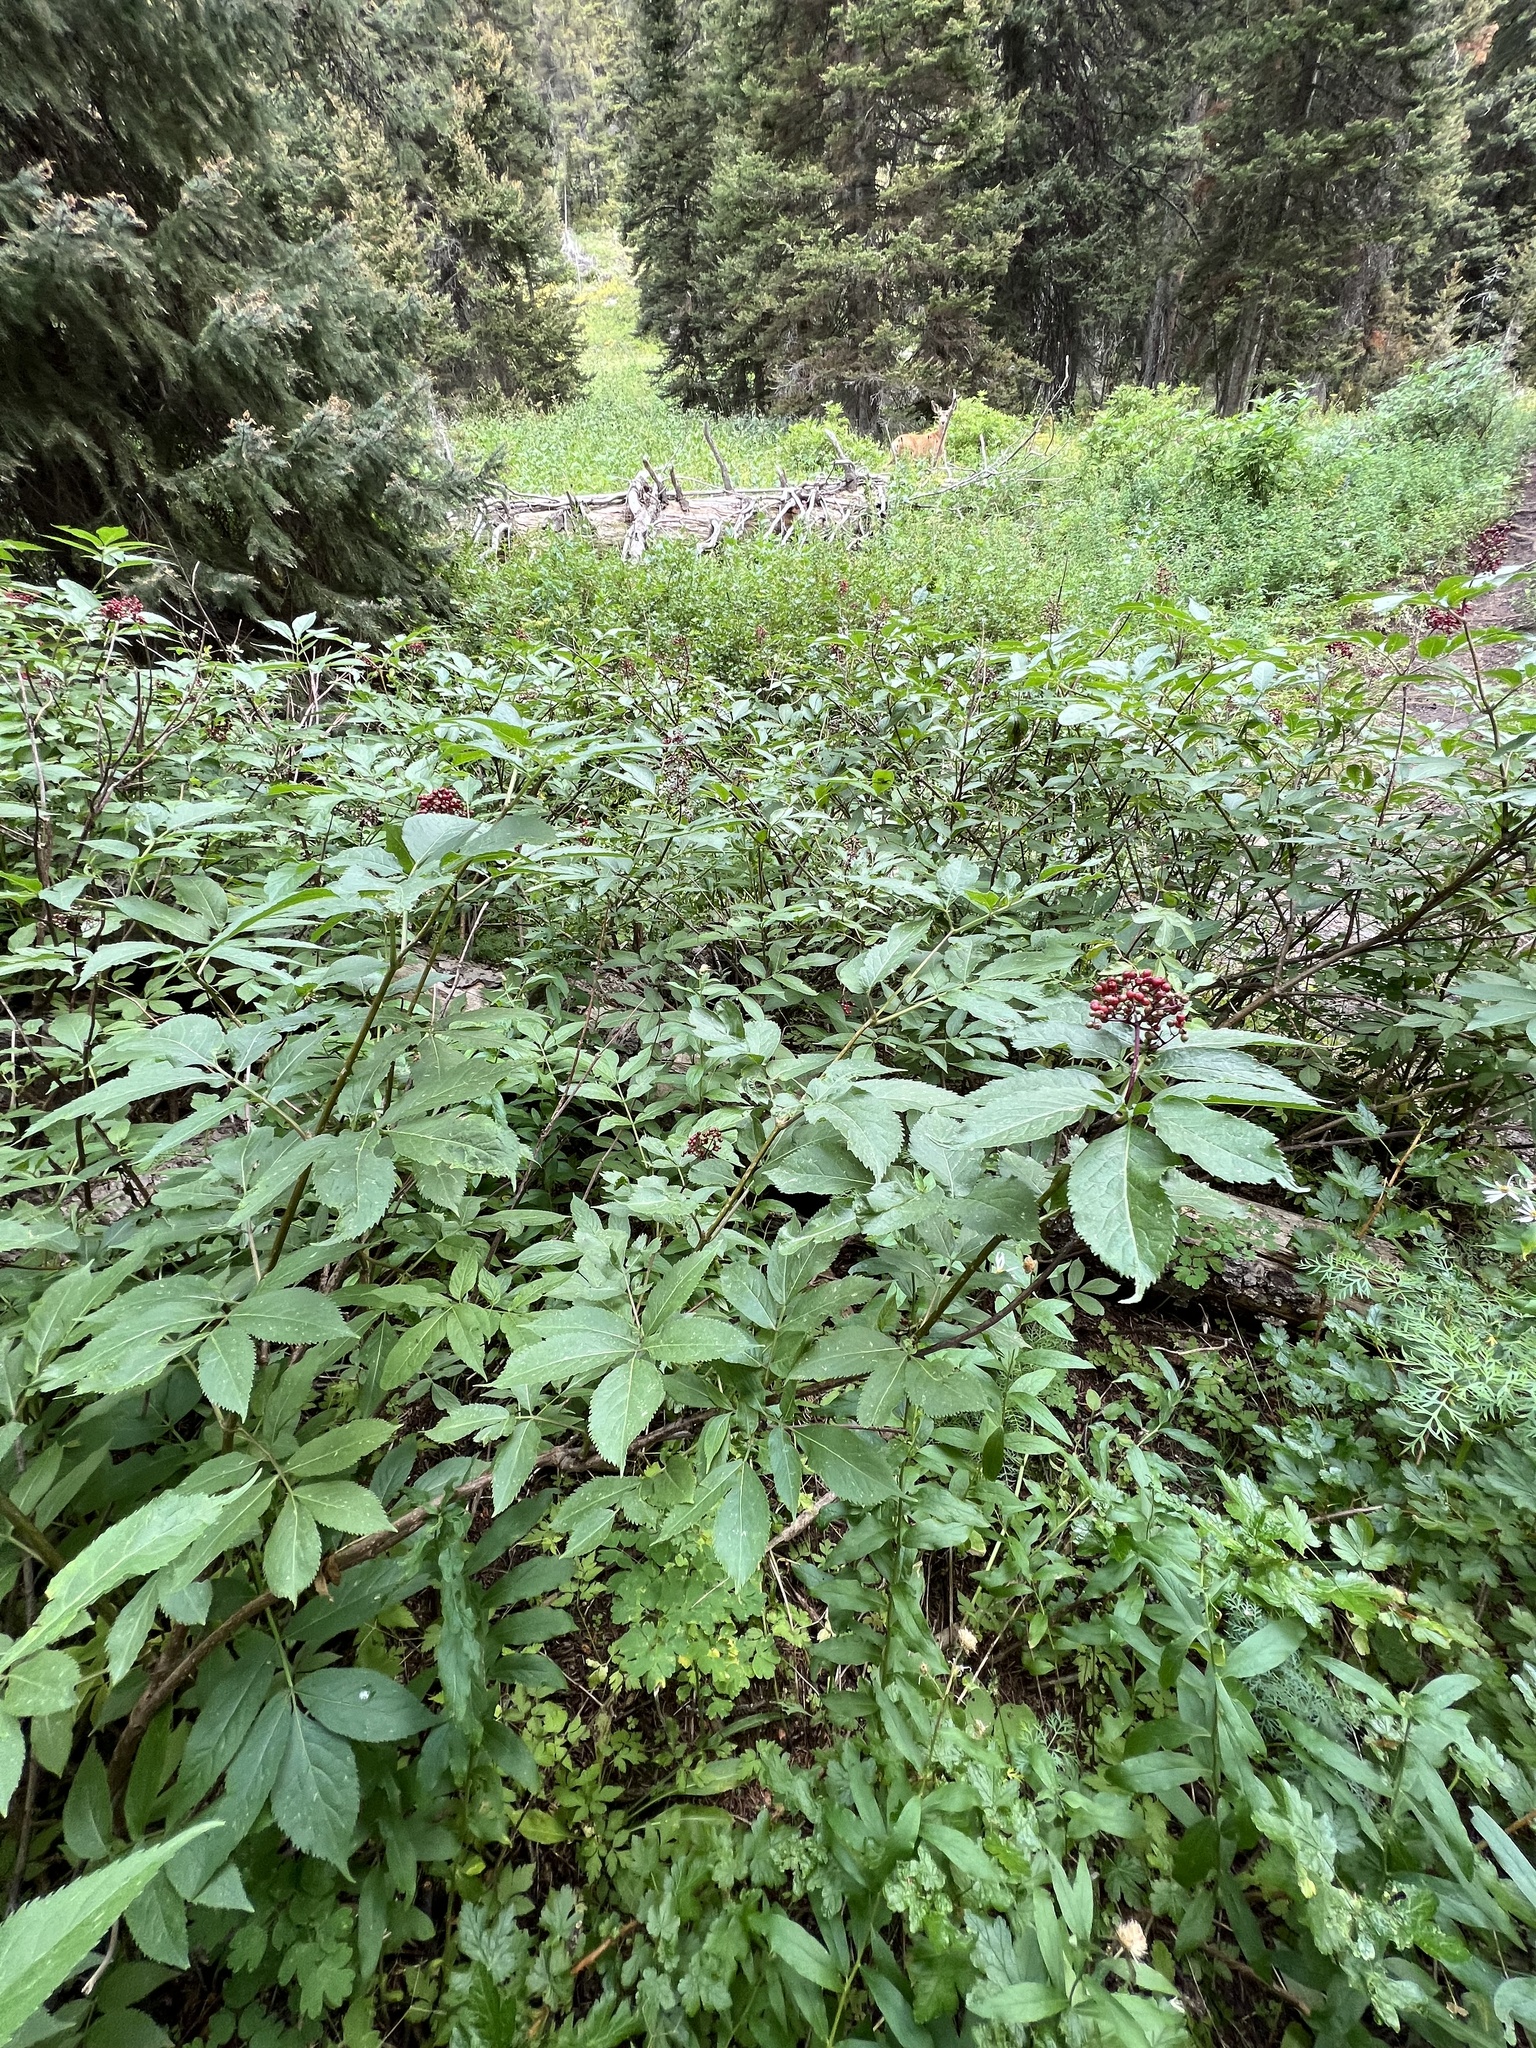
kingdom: Plantae
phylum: Tracheophyta
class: Magnoliopsida
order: Dipsacales
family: Viburnaceae
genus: Sambucus
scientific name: Sambucus racemosa
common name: Red-berried elder
